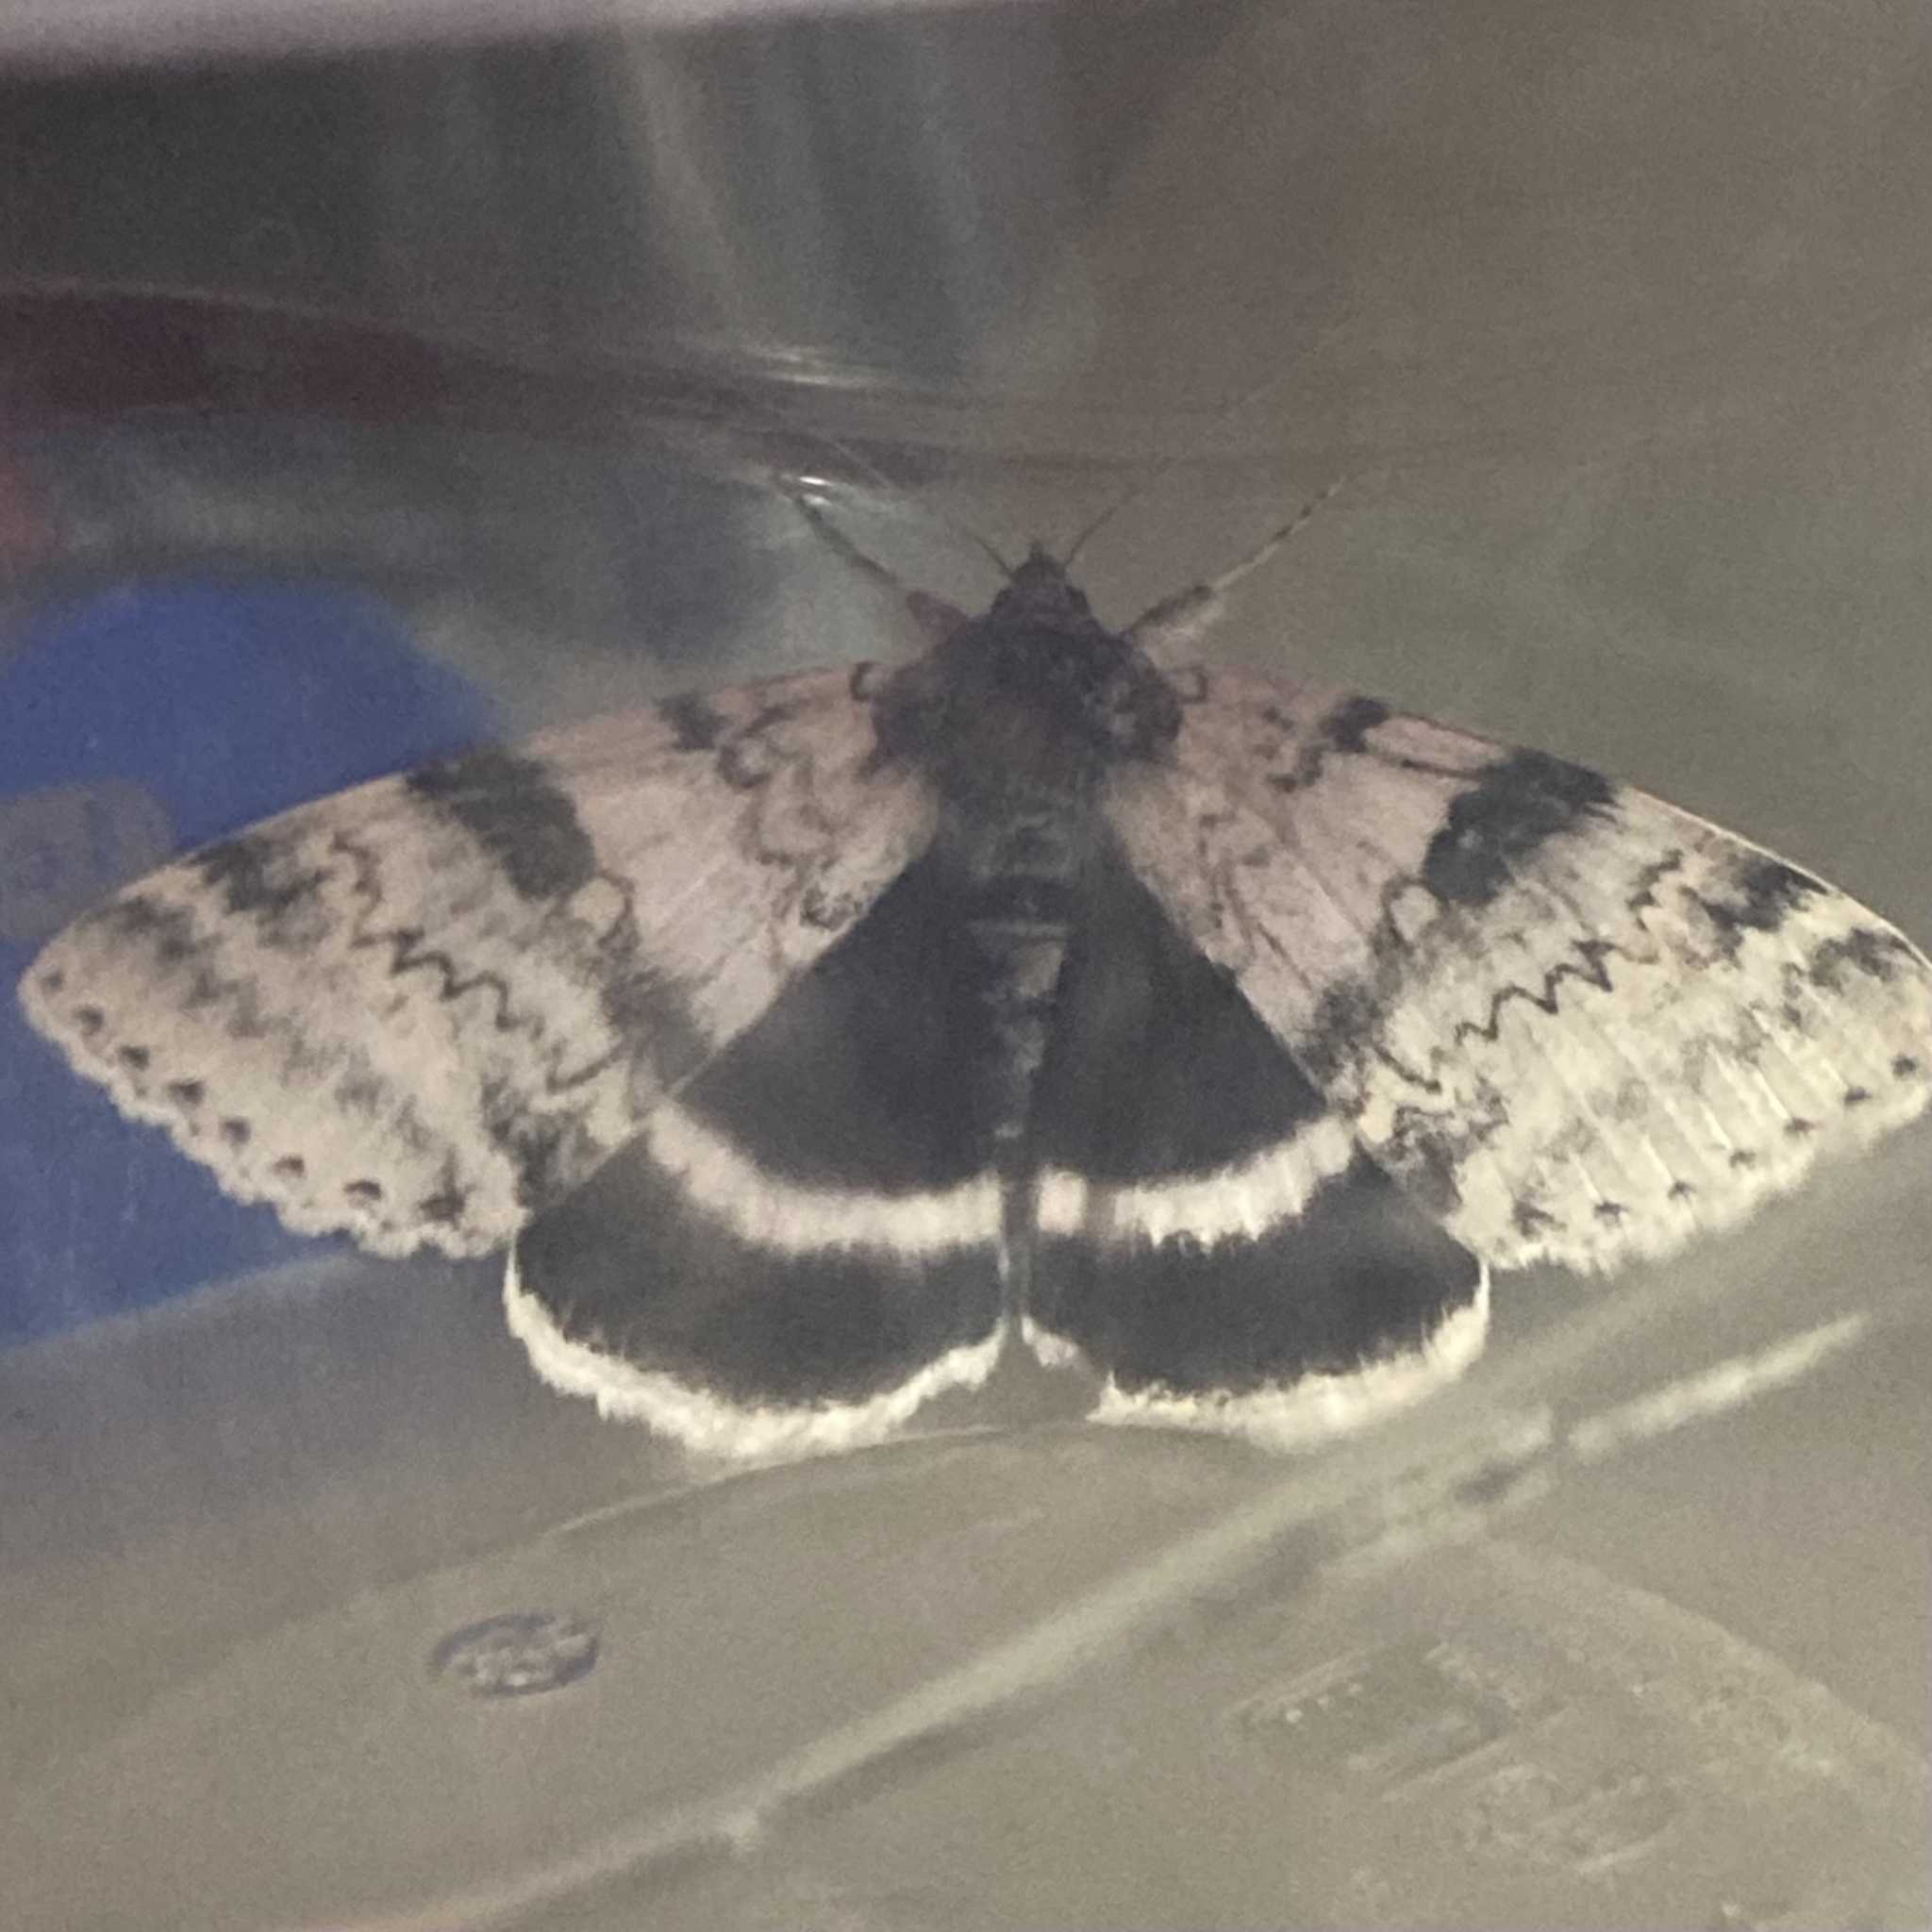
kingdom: Animalia
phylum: Arthropoda
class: Insecta
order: Lepidoptera
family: Erebidae
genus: Catocala
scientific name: Catocala relicta
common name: White underwing
